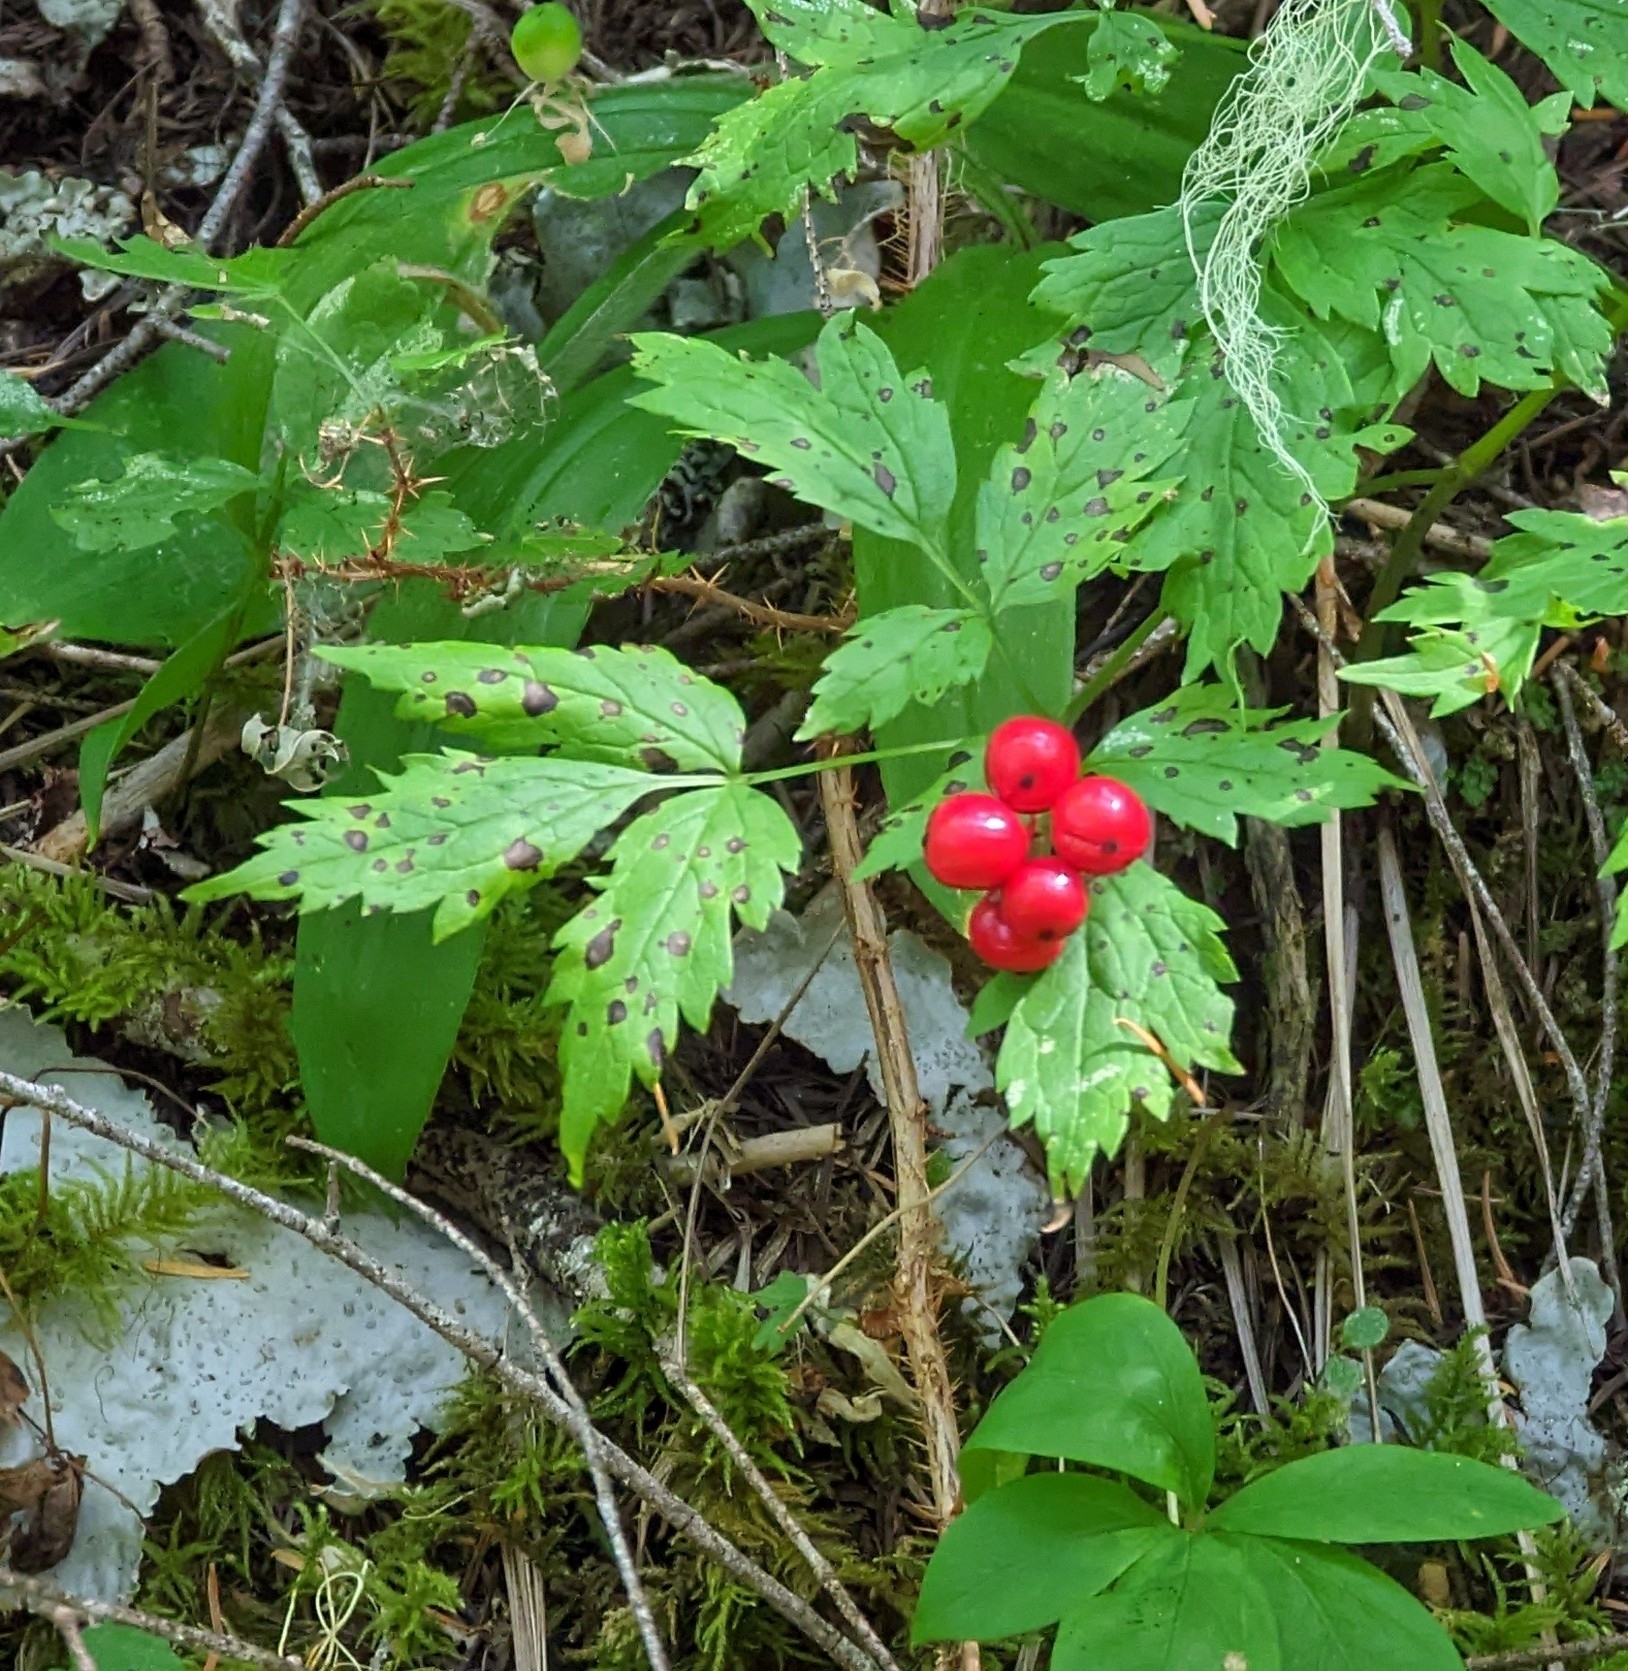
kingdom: Plantae
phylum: Tracheophyta
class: Magnoliopsida
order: Ranunculales
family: Ranunculaceae
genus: Actaea
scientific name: Actaea rubra
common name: Red baneberry
